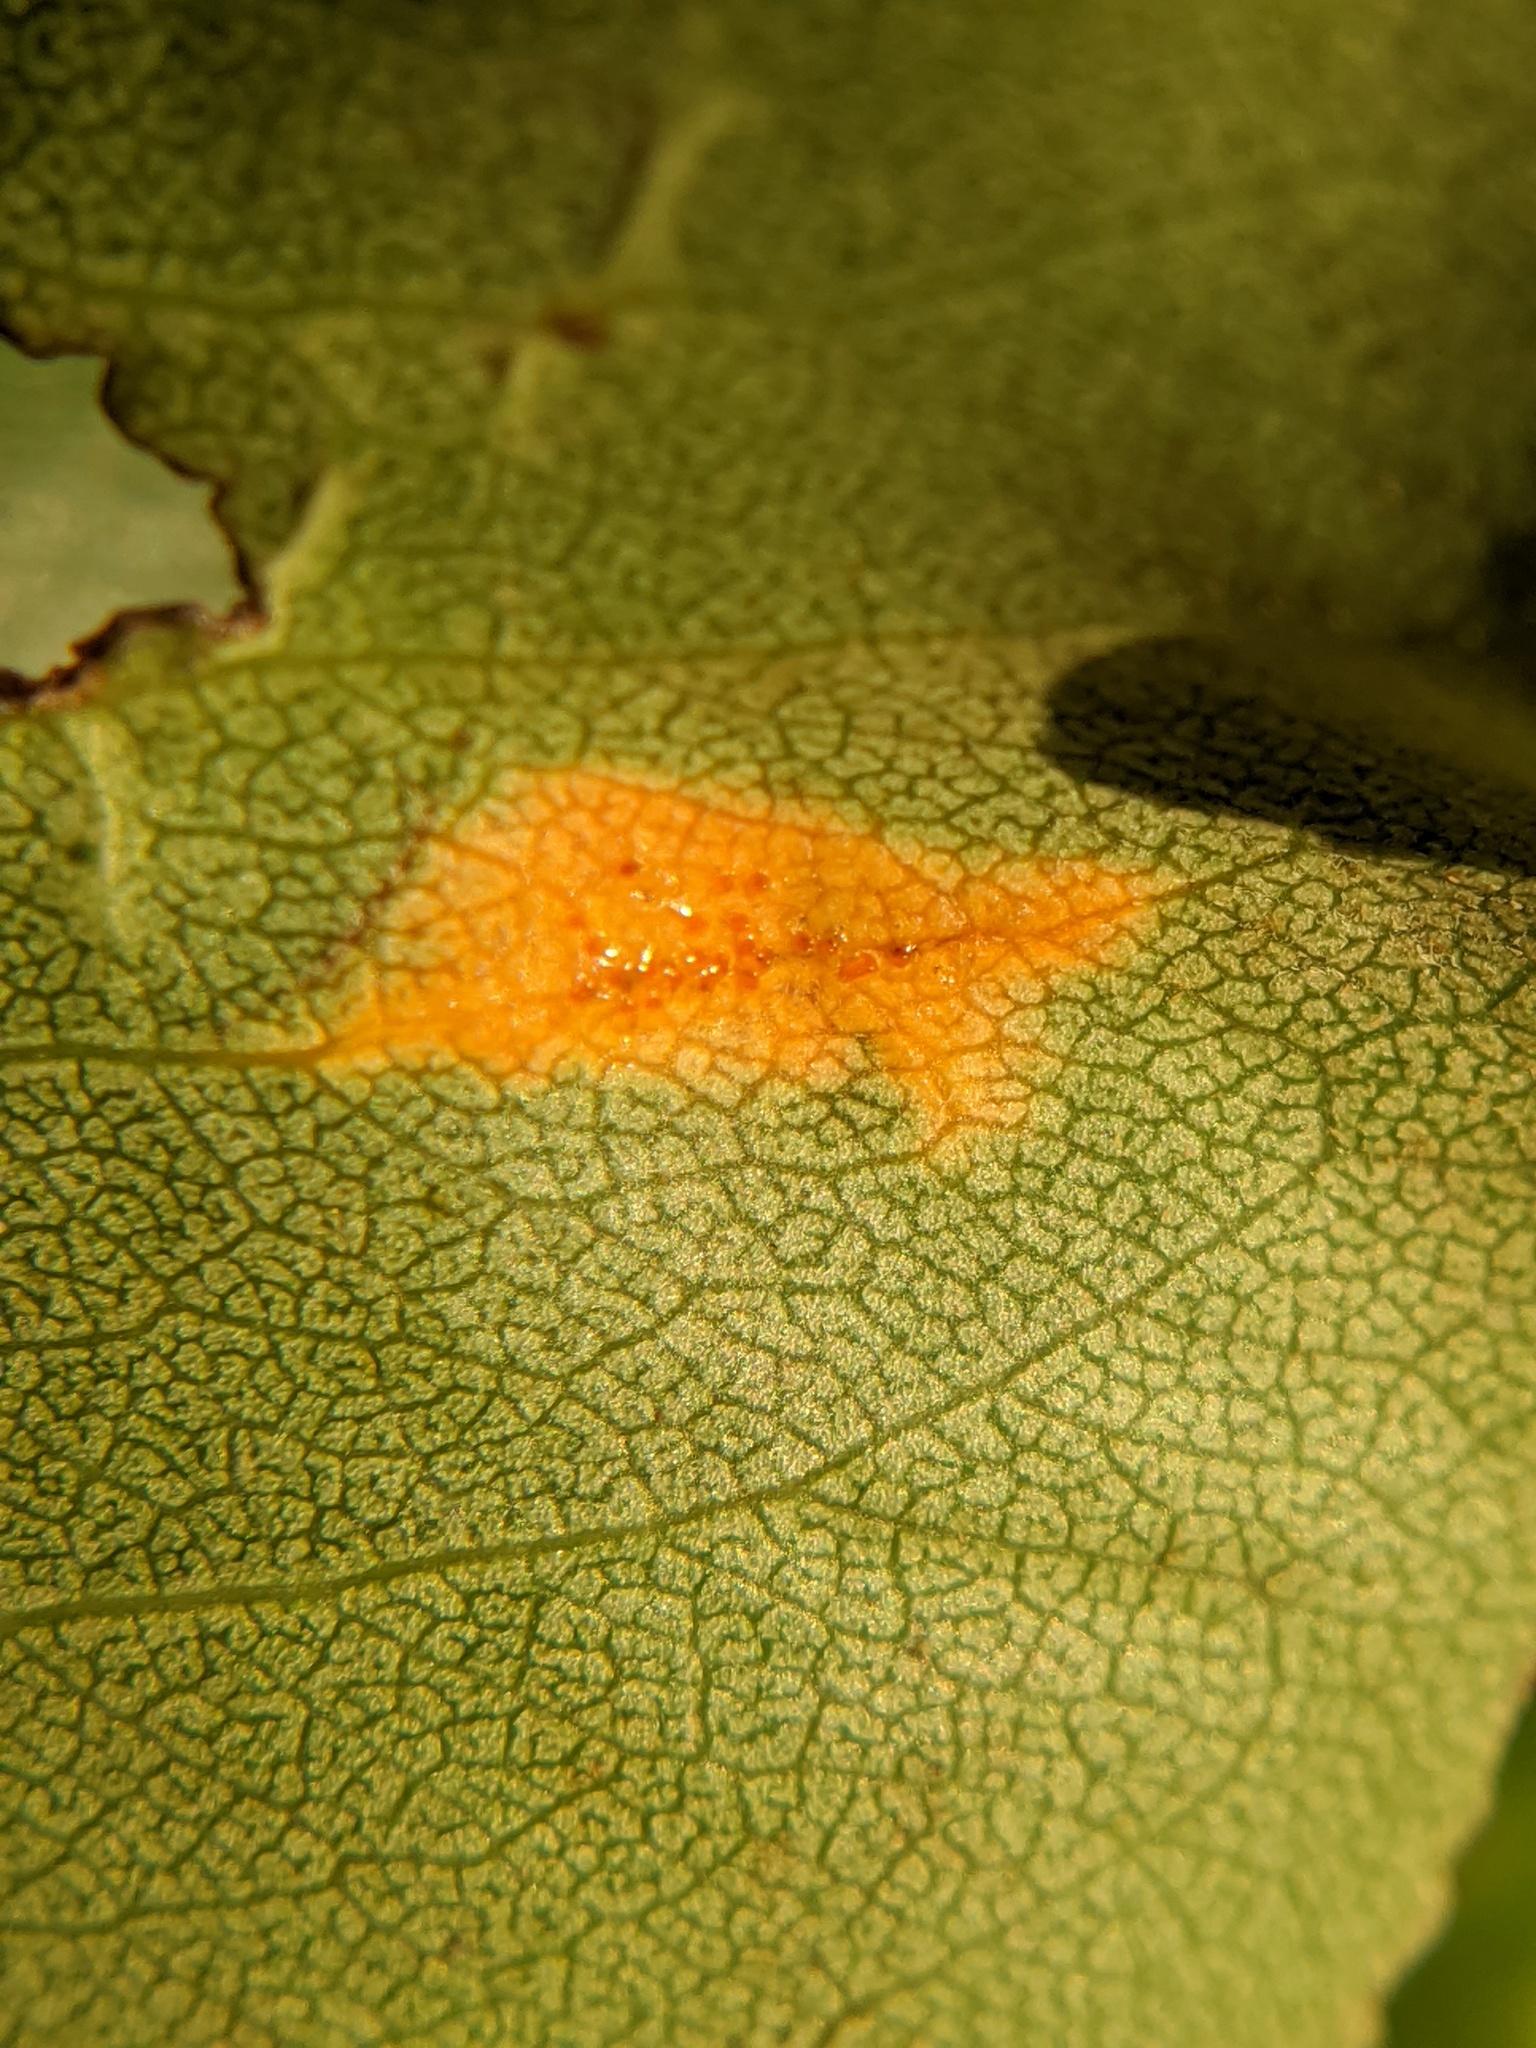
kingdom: Fungi
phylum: Basidiomycota
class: Pucciniomycetes
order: Pucciniales
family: Gymnosporangiaceae
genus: Gymnosporangium
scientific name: Gymnosporangium sabinae
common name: Pear trellis rust fungus
